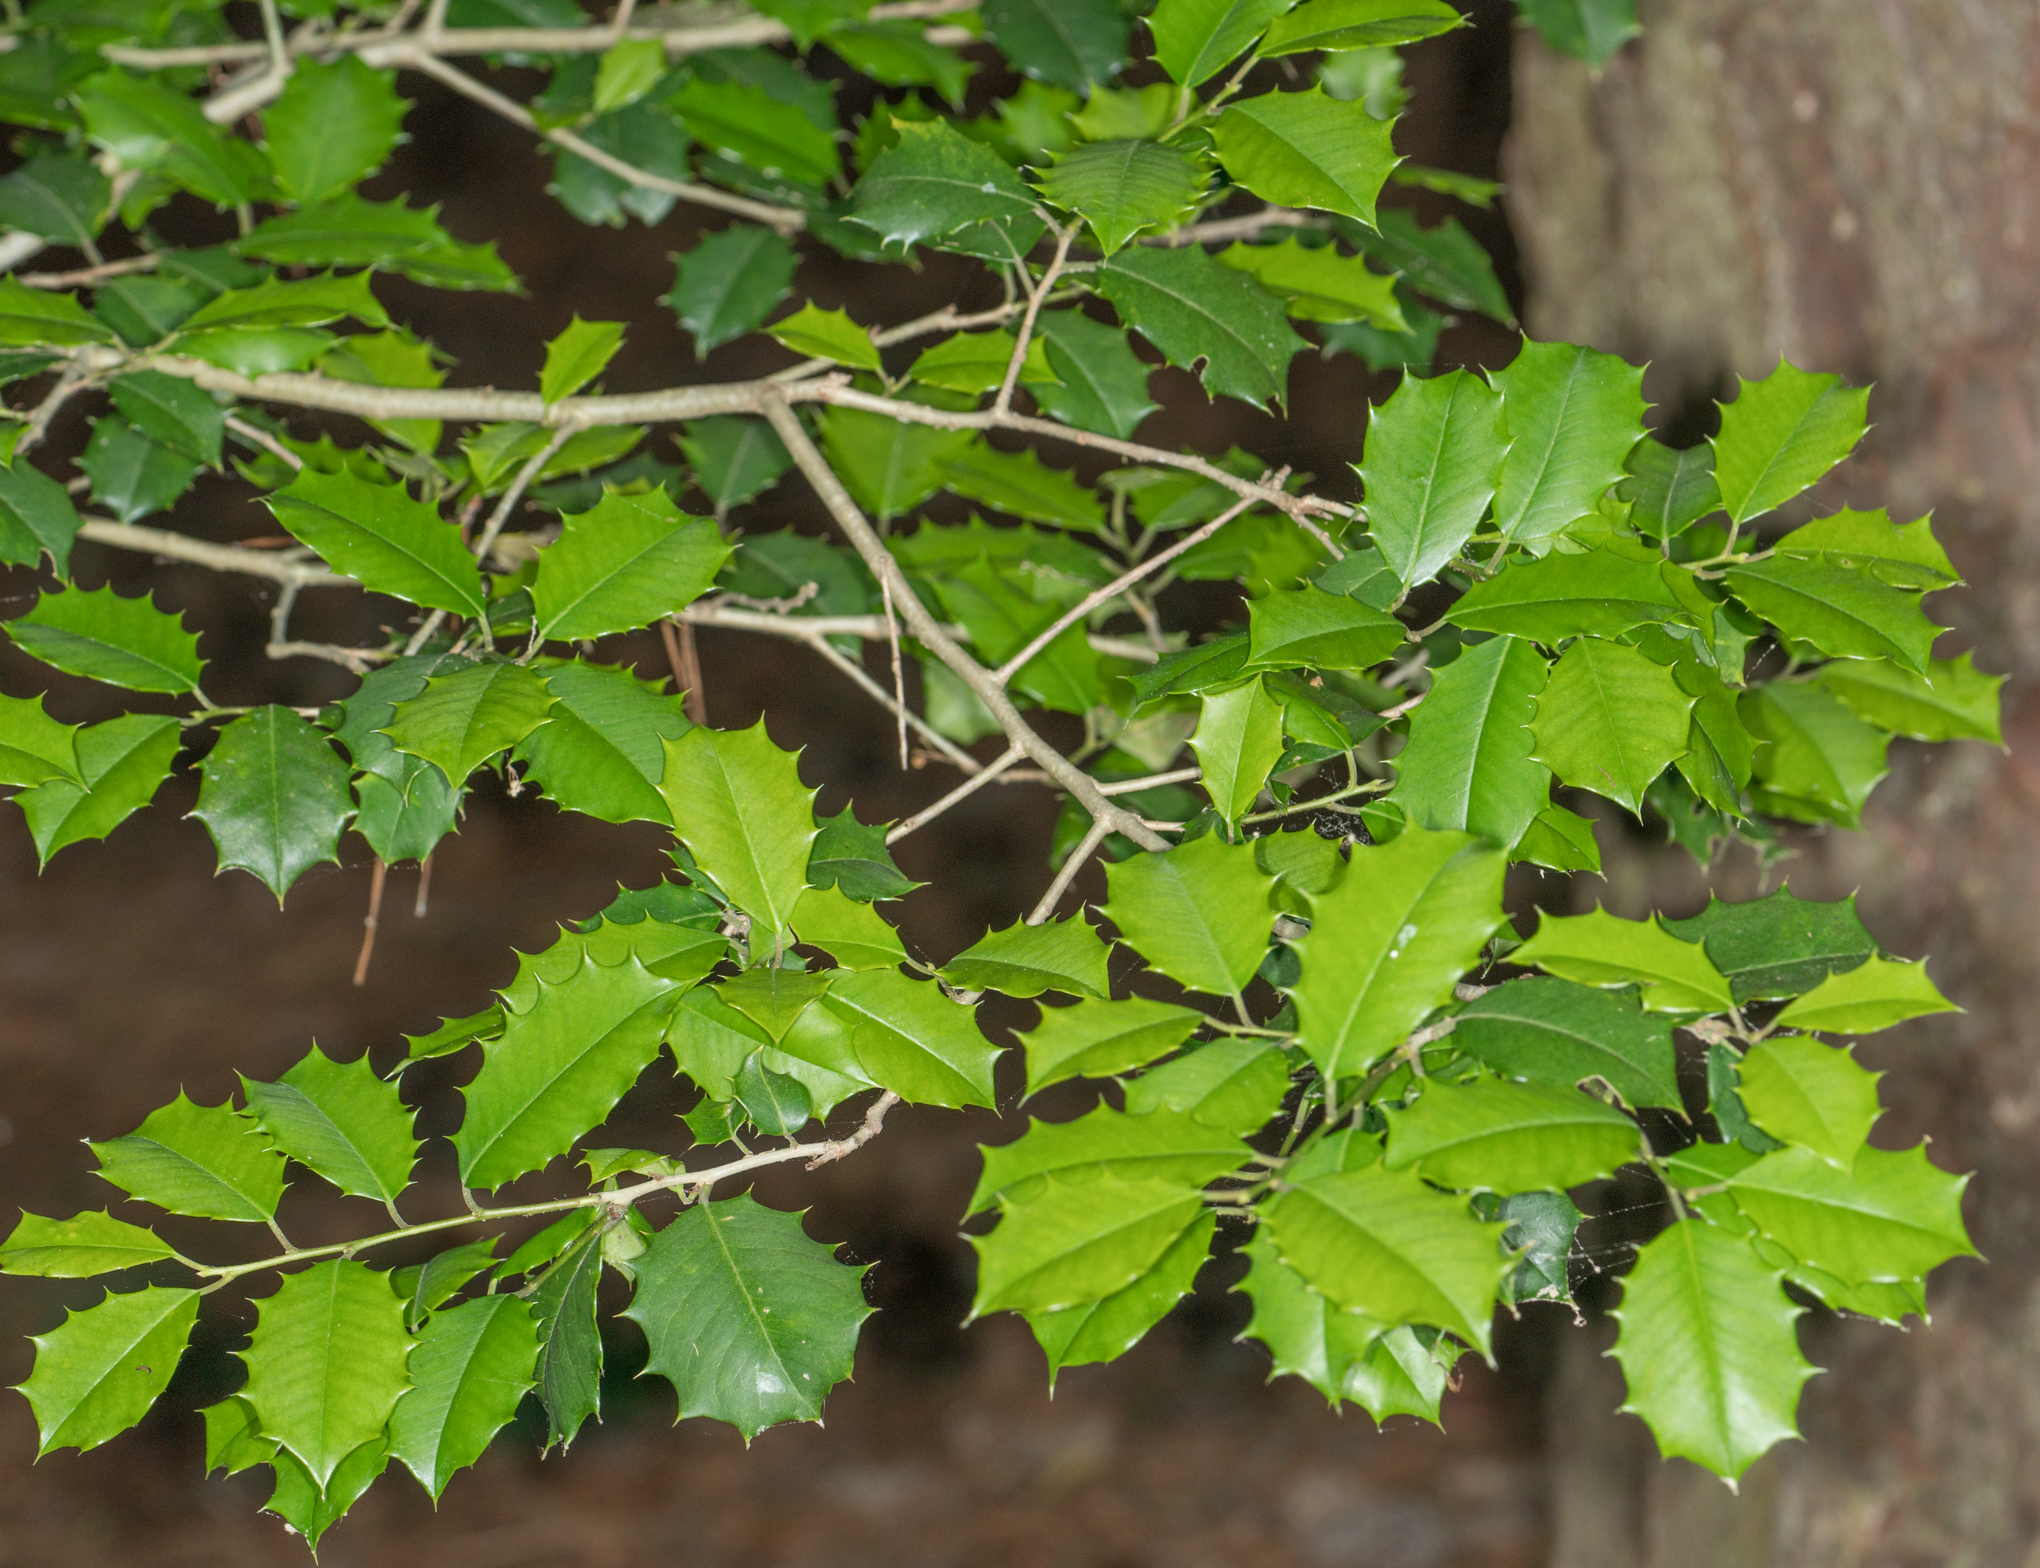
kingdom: Plantae
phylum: Tracheophyta
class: Magnoliopsida
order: Aquifoliales
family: Aquifoliaceae
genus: Ilex
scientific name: Ilex opaca
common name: American holly
